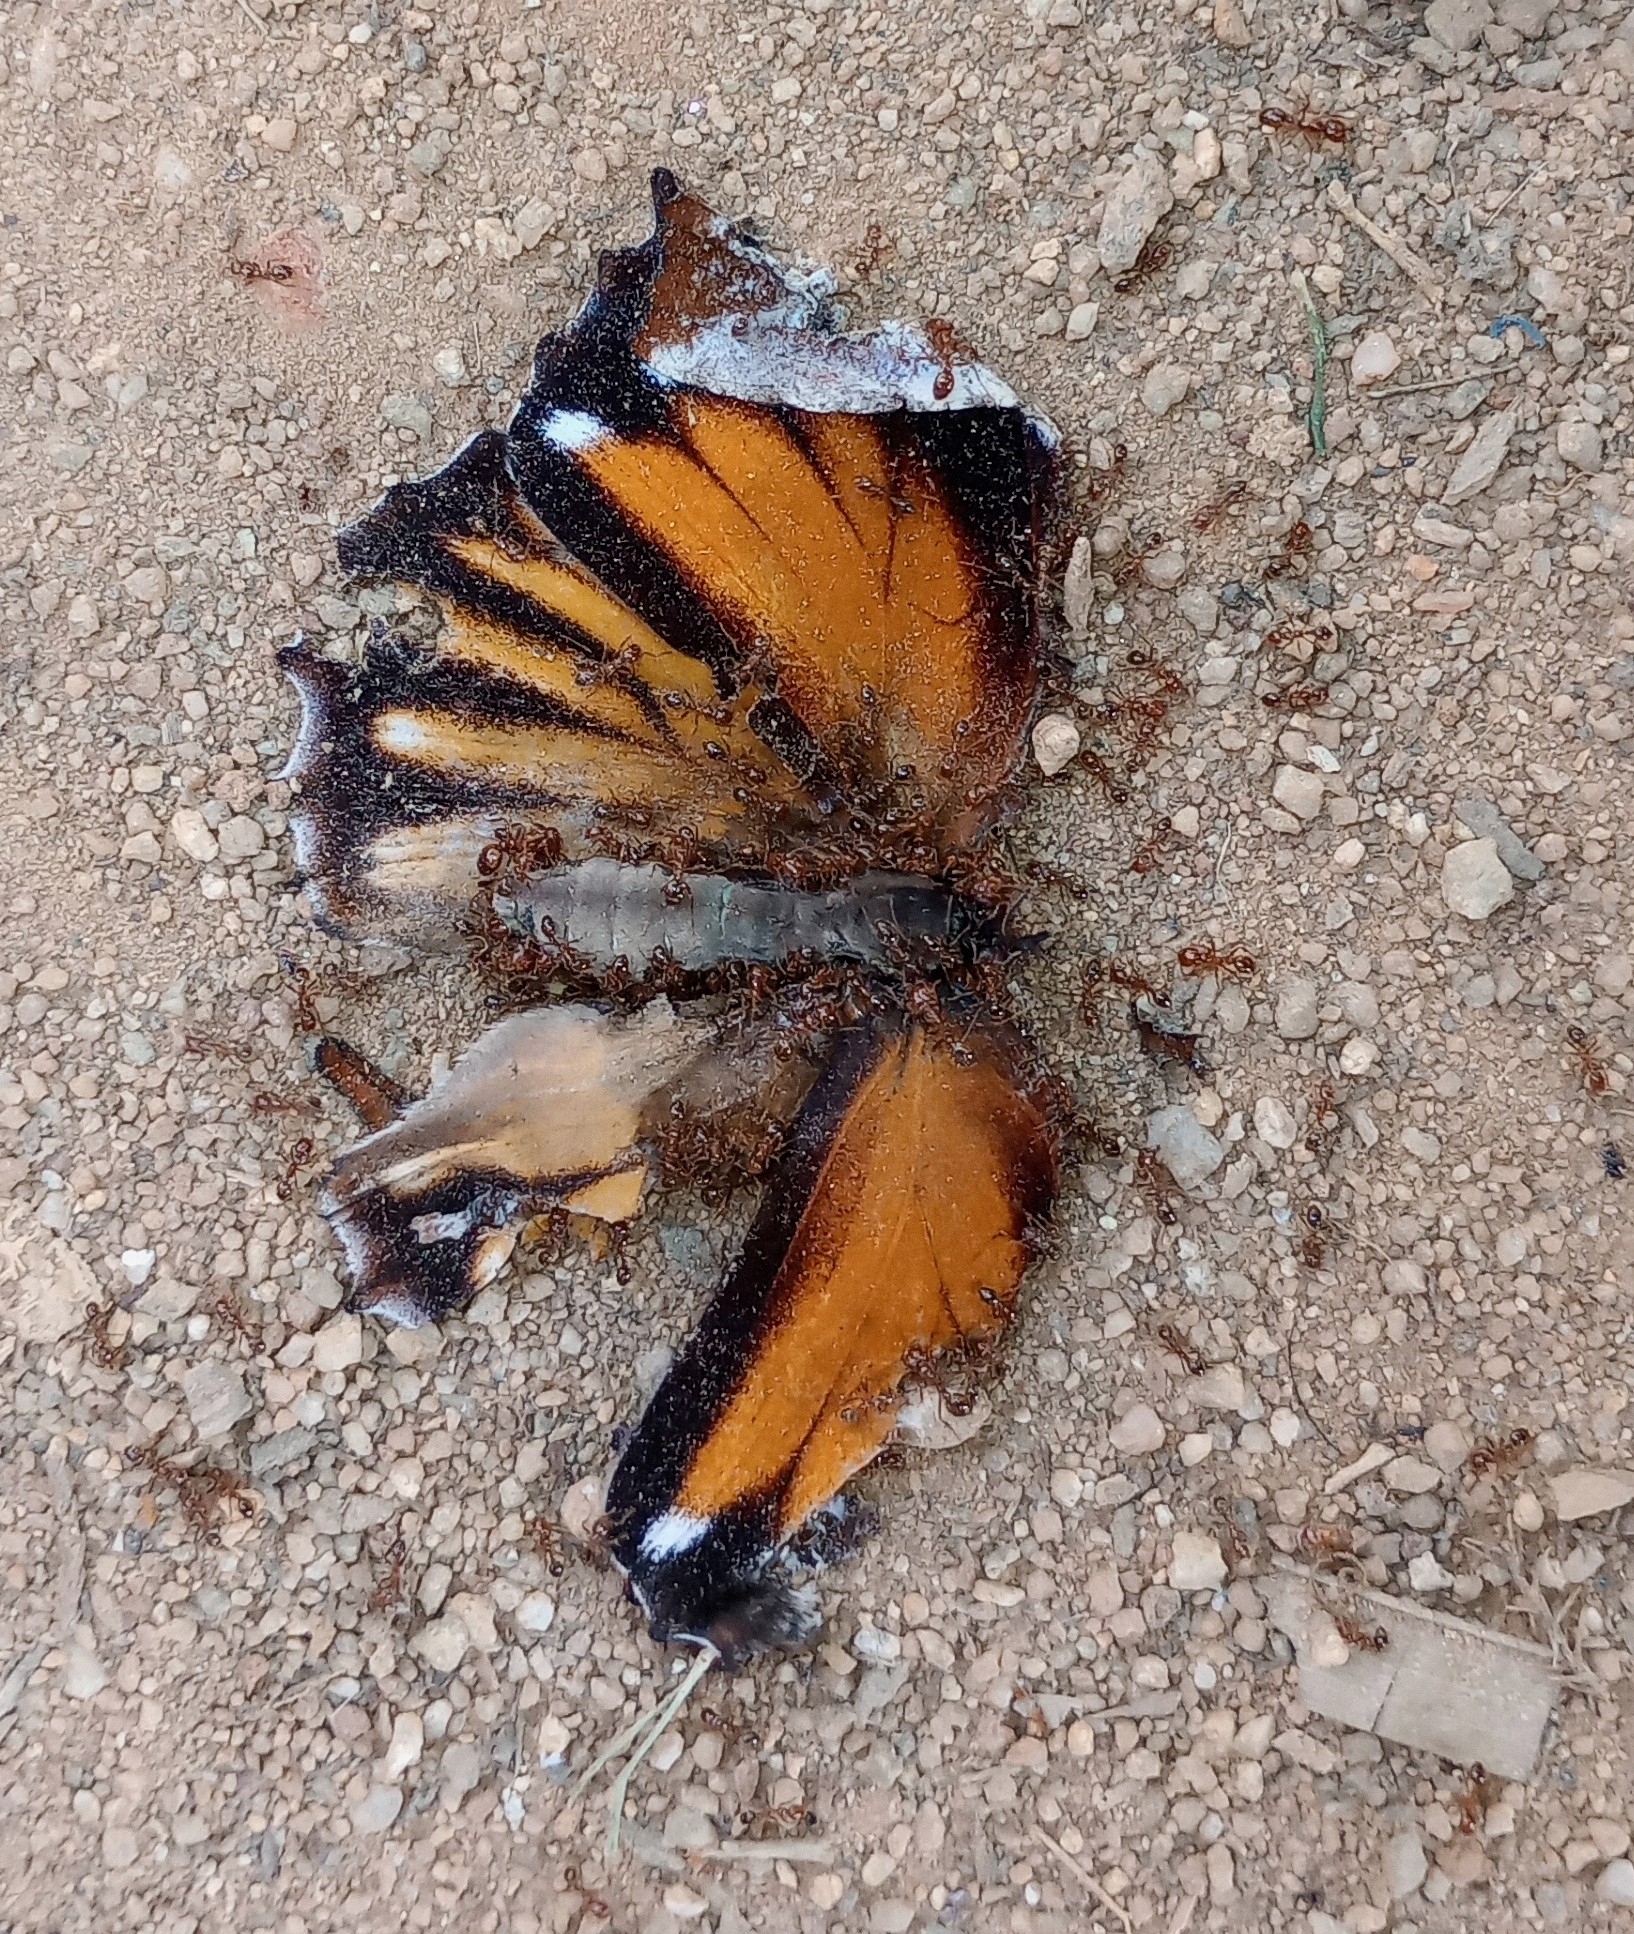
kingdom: Animalia
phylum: Arthropoda
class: Insecta
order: Lepidoptera
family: Nymphalidae
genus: Elymnias
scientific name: Elymnias caudata
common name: Tailed palmfly
